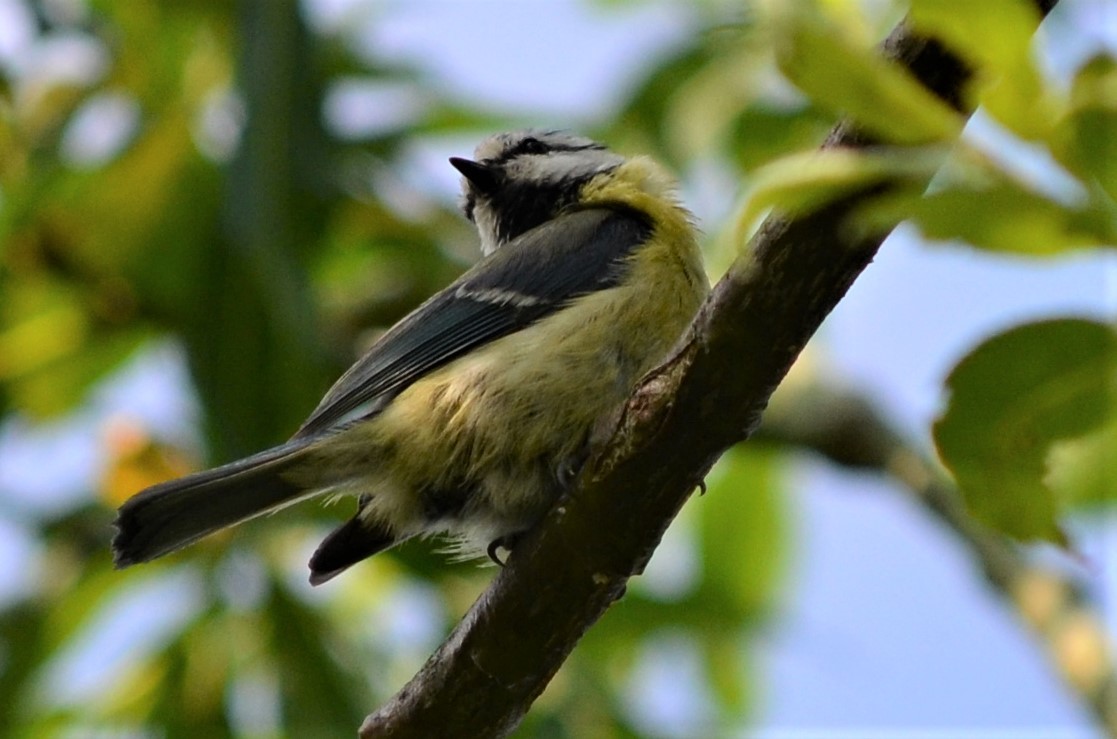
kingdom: Animalia
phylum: Chordata
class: Aves
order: Passeriformes
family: Paridae
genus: Cyanistes
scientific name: Cyanistes caeruleus
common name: Eurasian blue tit
